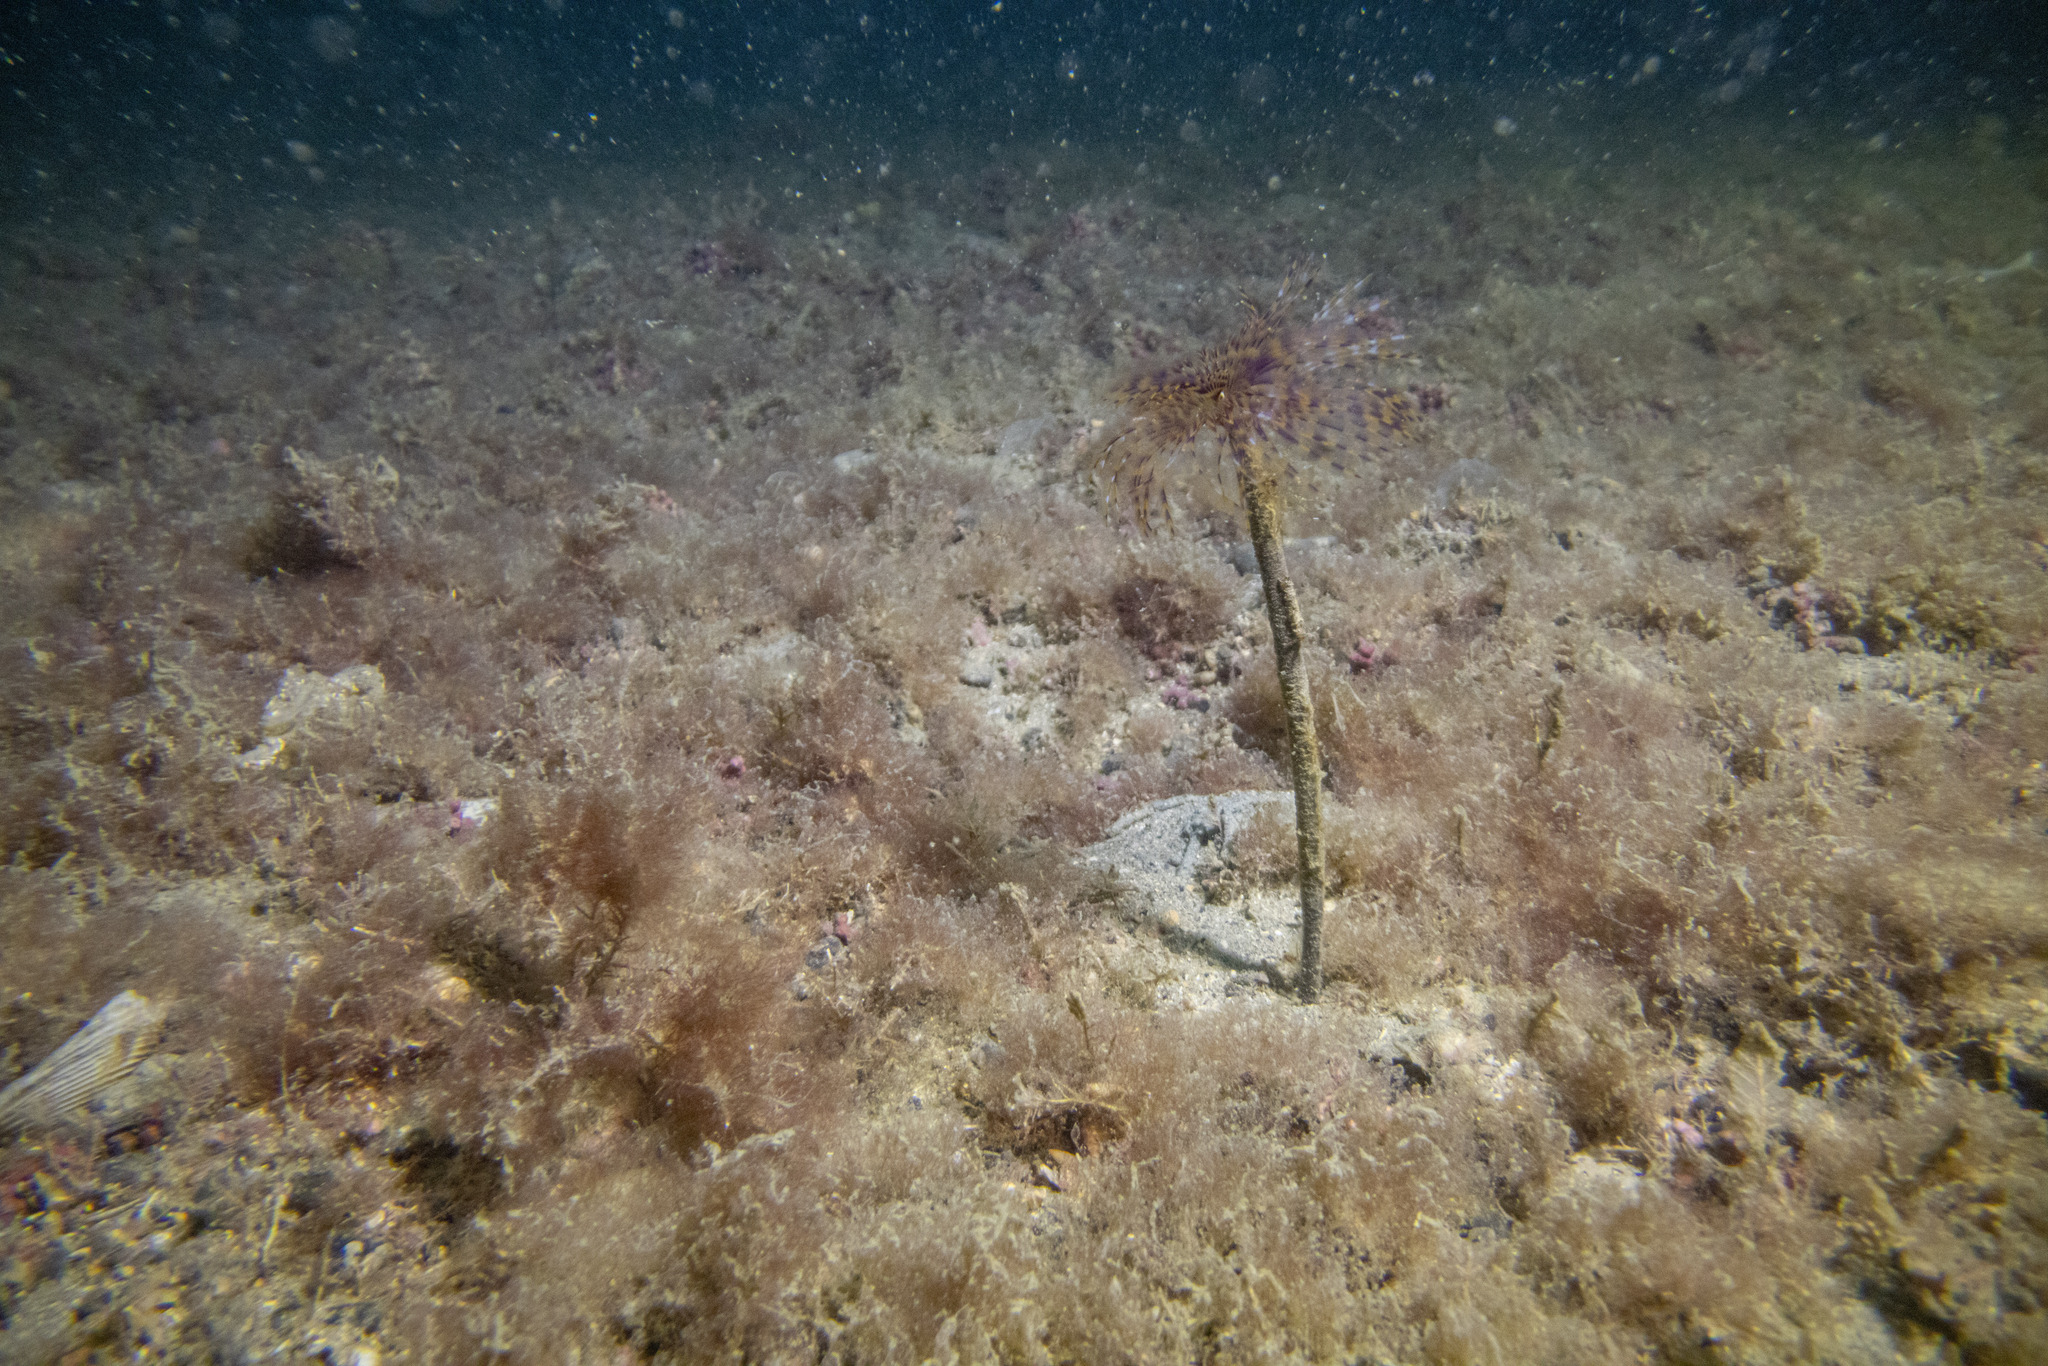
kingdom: Animalia
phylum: Annelida
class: Polychaeta
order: Sabellida
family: Sabellidae
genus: Sabella
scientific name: Sabella spallanzanii
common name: Feather duster worm
